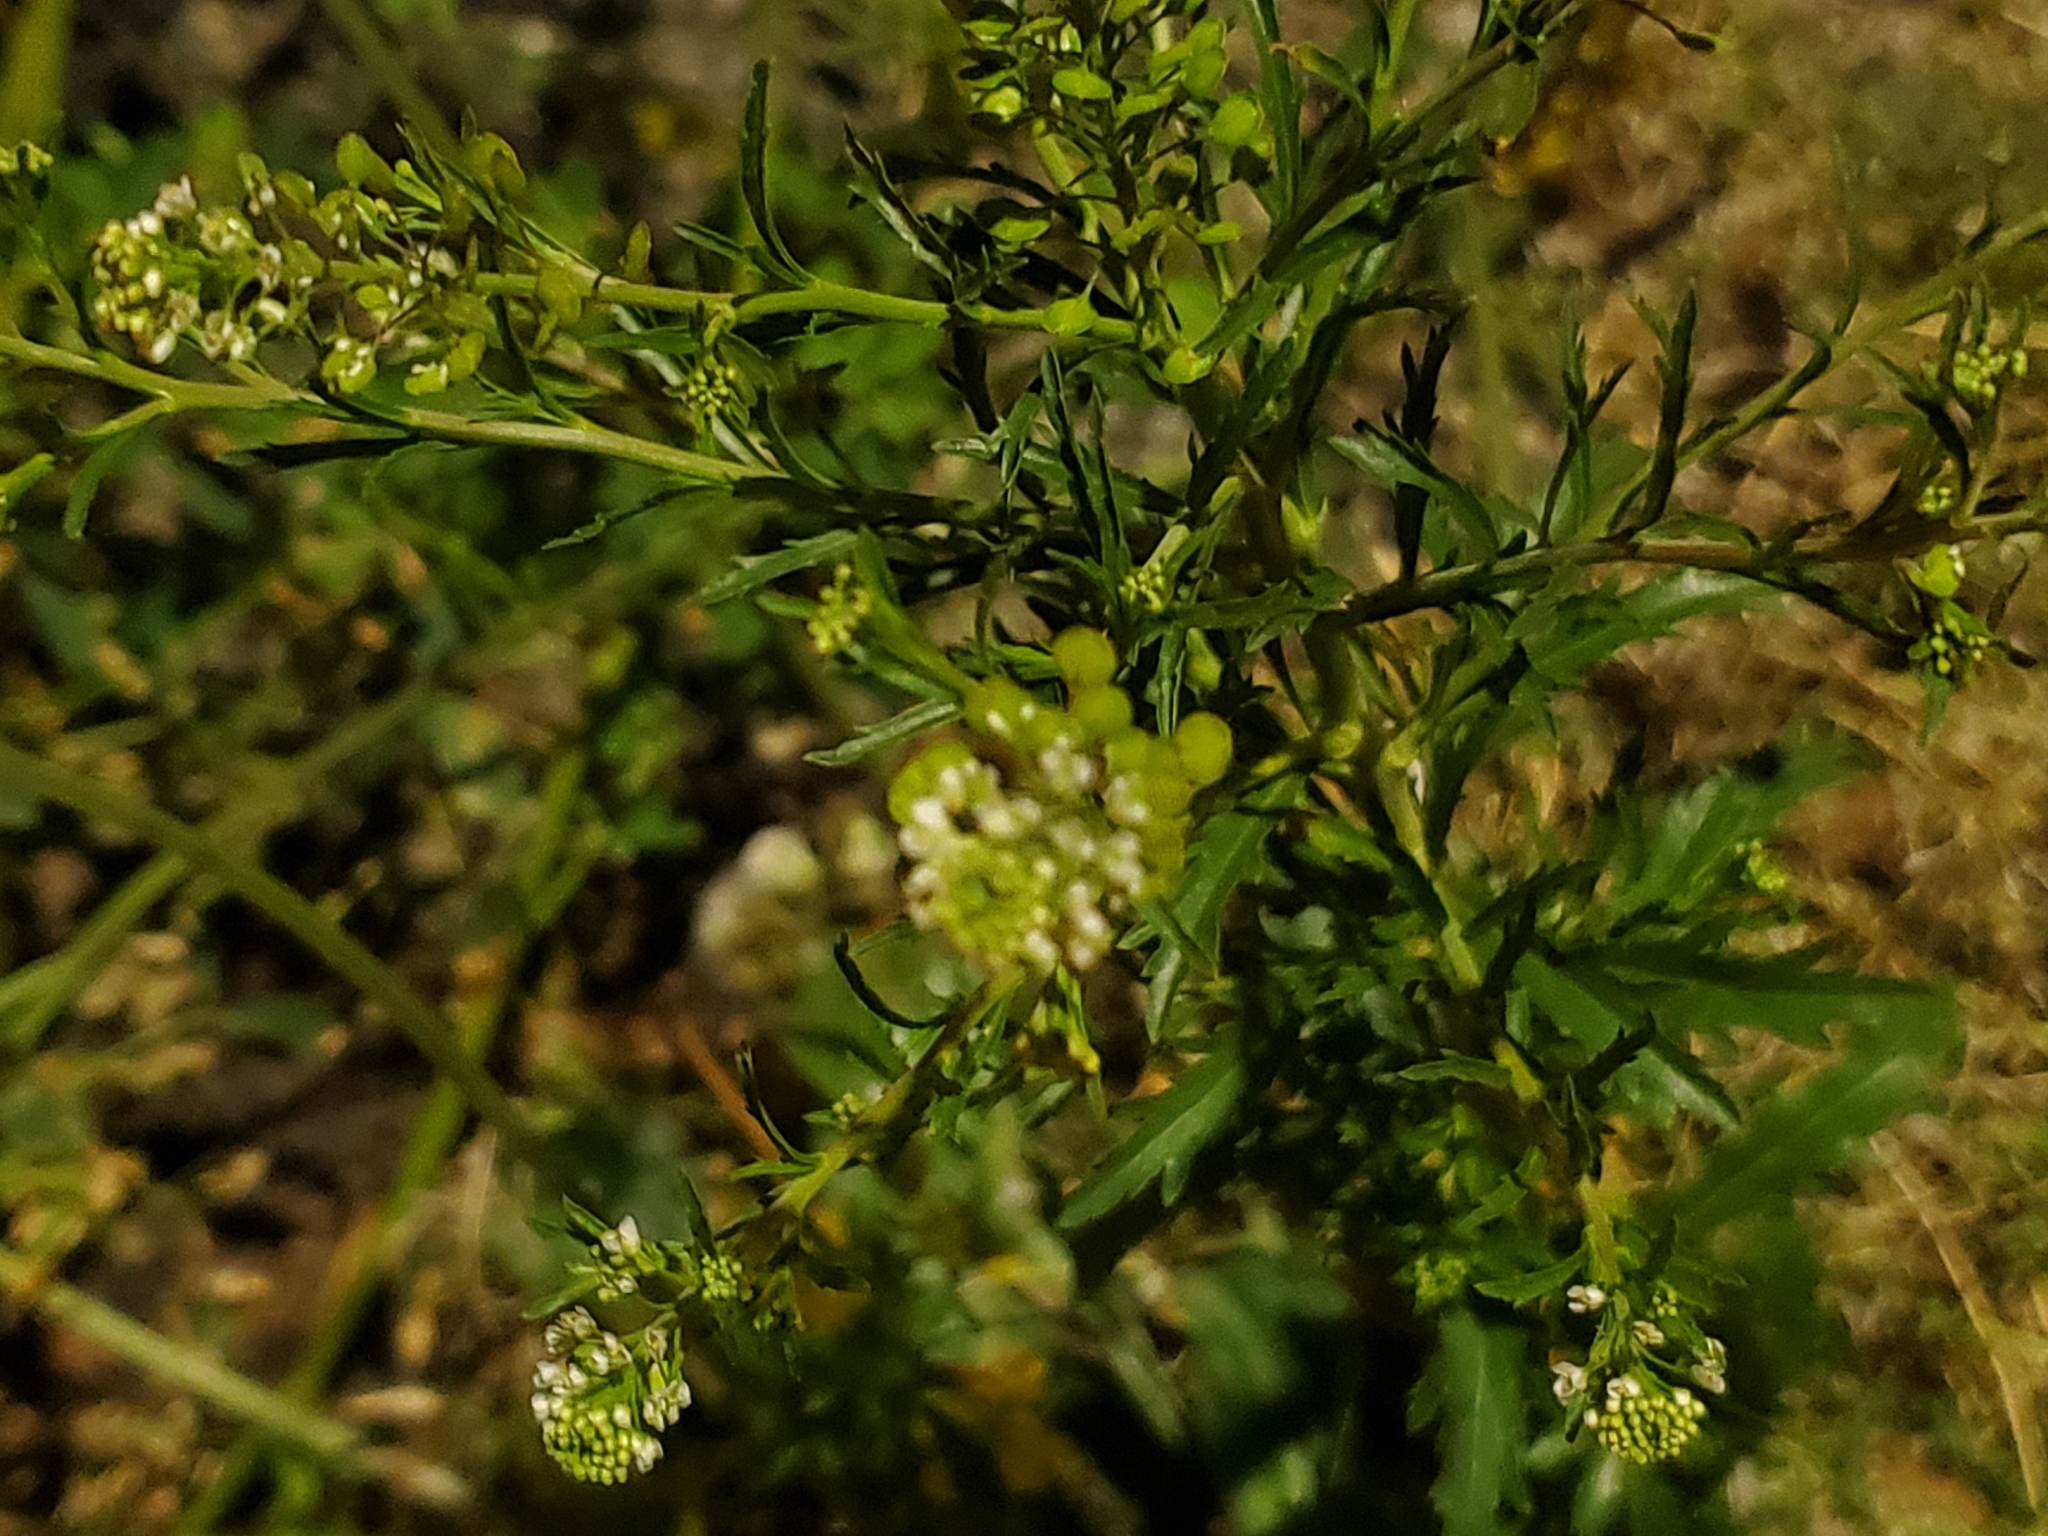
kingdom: Plantae
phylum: Tracheophyta
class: Magnoliopsida
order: Brassicales
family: Brassicaceae
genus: Lepidium
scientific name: Lepidium virginicum
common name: Least pepperwort
